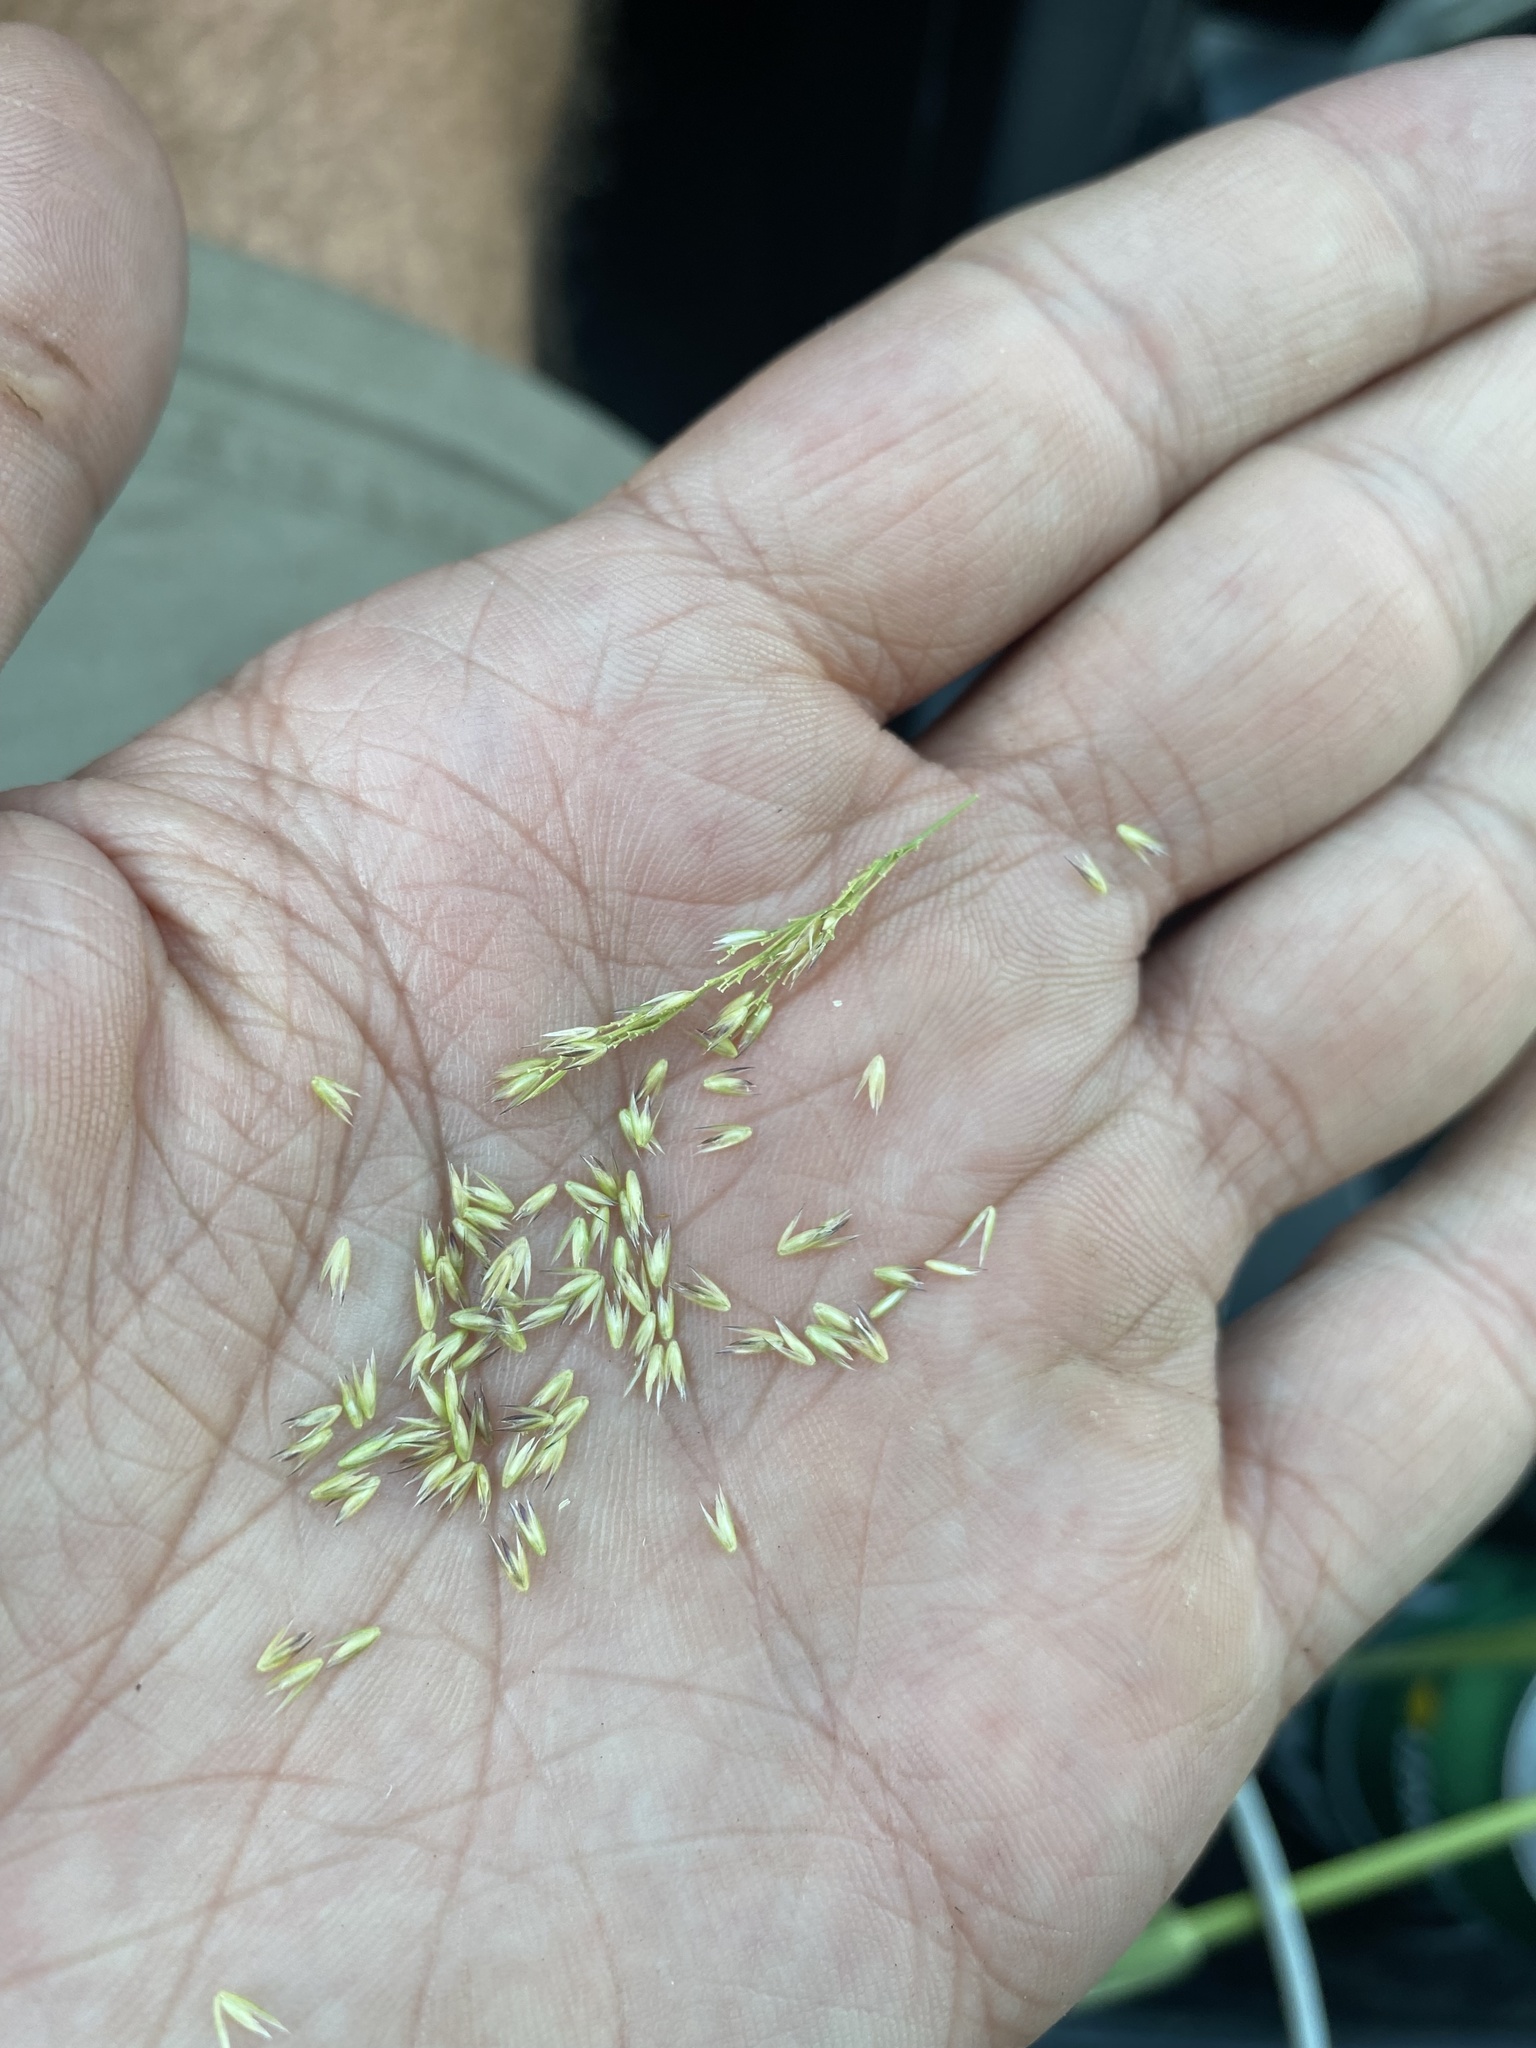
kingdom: Plantae
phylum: Tracheophyta
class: Liliopsida
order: Poales
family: Poaceae
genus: Cinna
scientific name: Cinna latifolia
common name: Drooping woodreed
